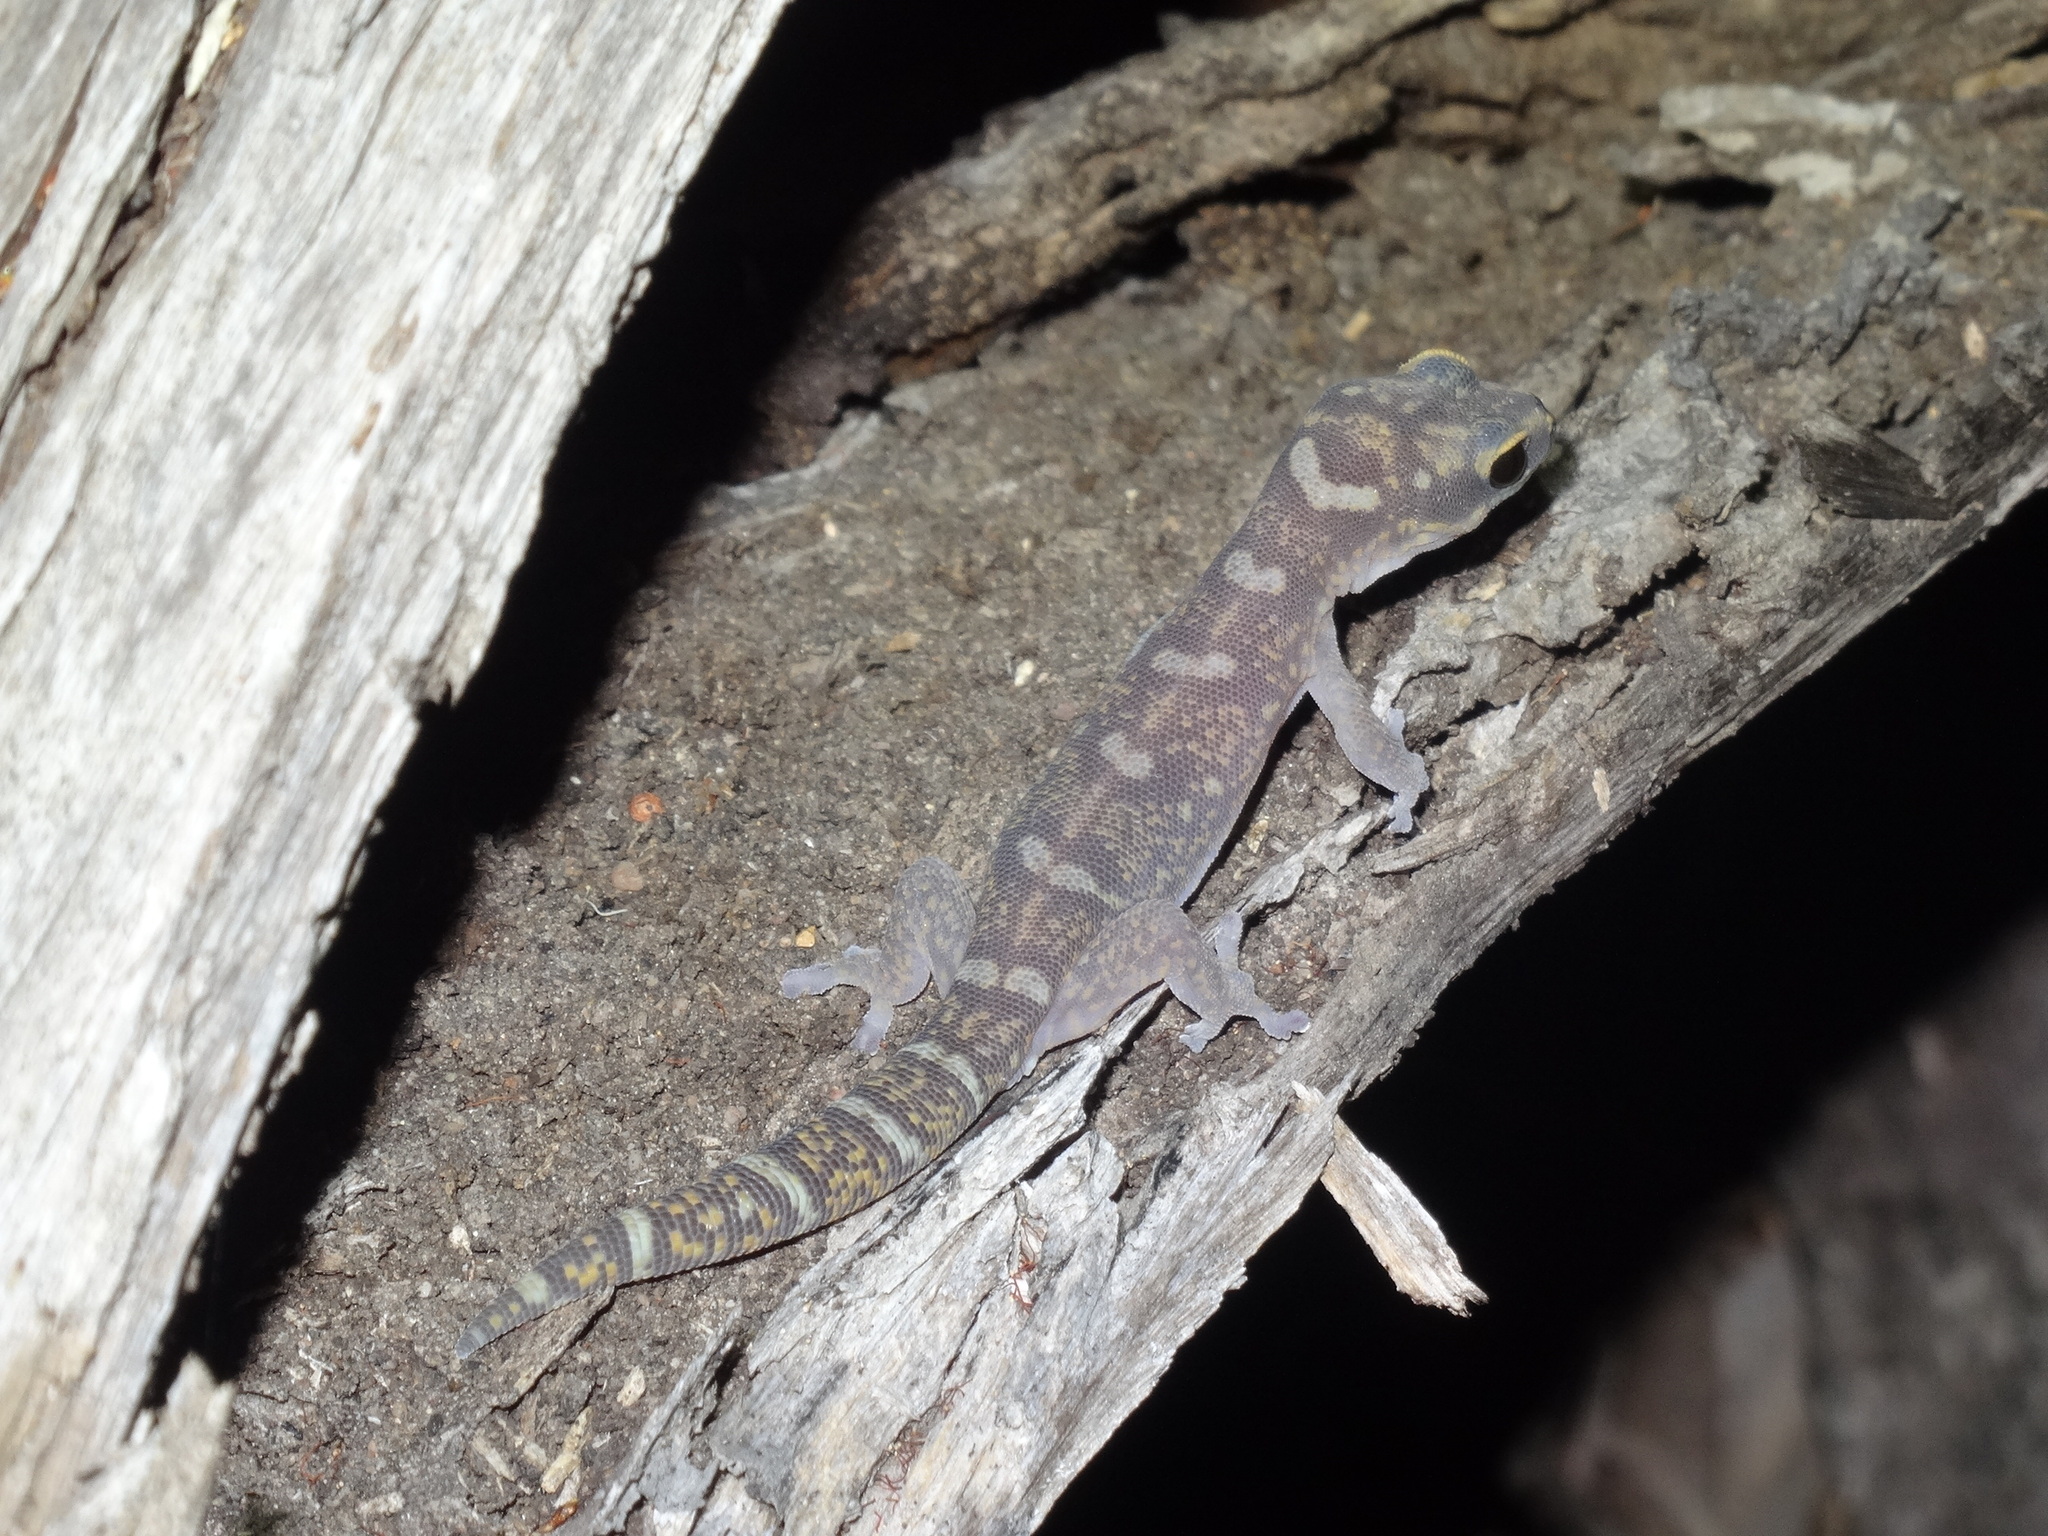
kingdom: Animalia
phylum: Chordata
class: Squamata
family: Diplodactylidae
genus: Oedura
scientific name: Oedura monilis
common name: Blotched gecko
